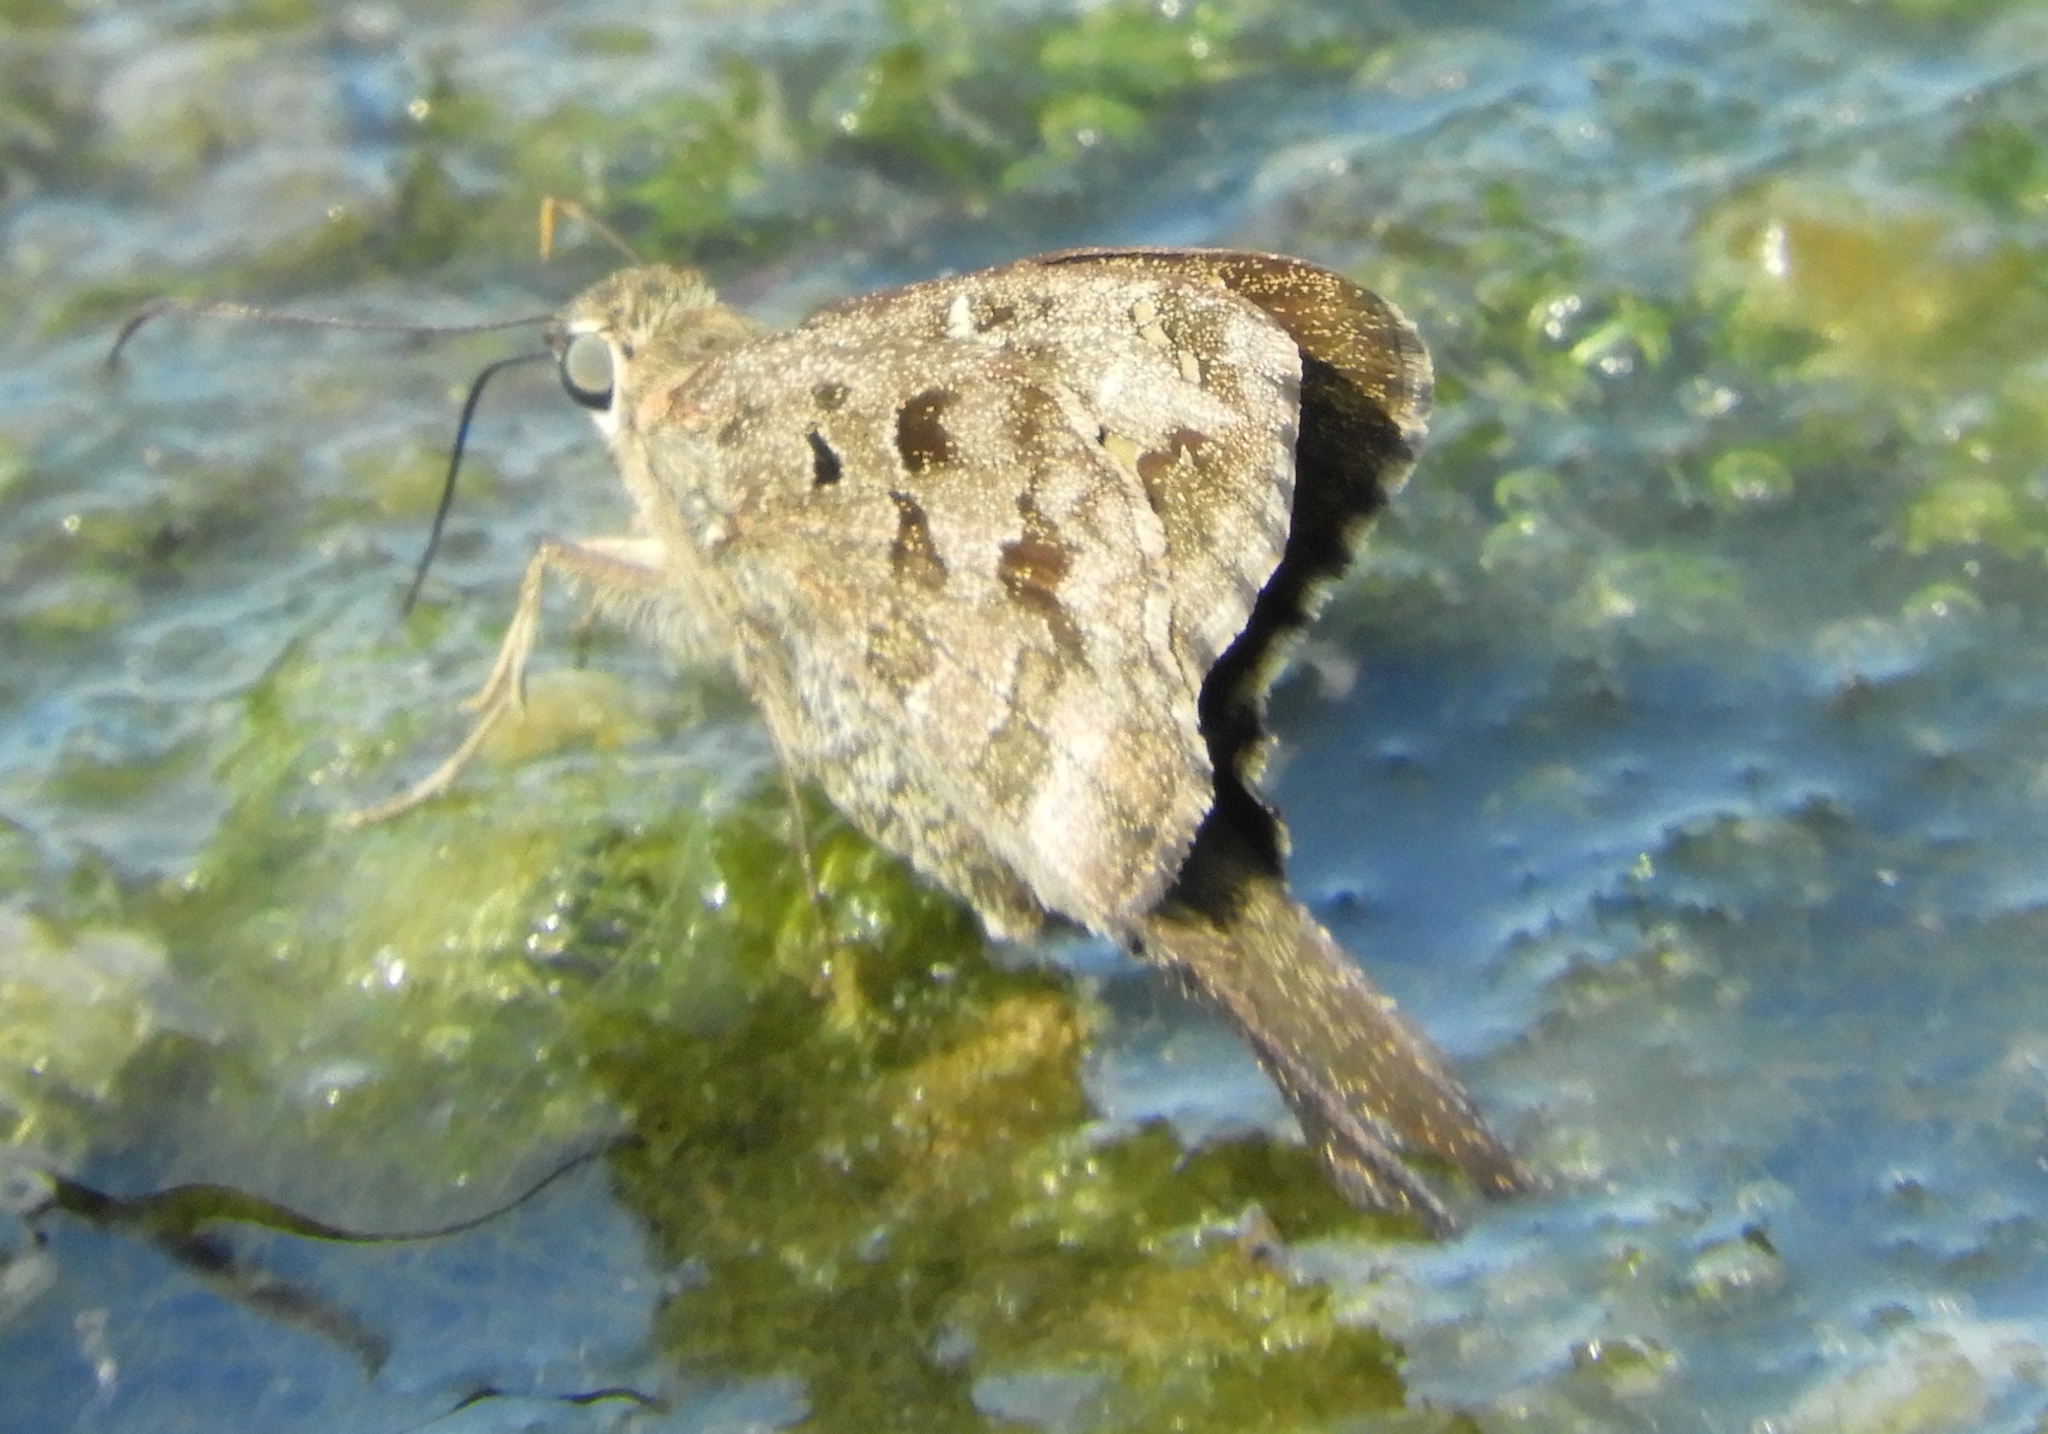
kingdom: Animalia
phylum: Arthropoda
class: Insecta
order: Lepidoptera
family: Hesperiidae
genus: Thorybes
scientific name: Thorybes
